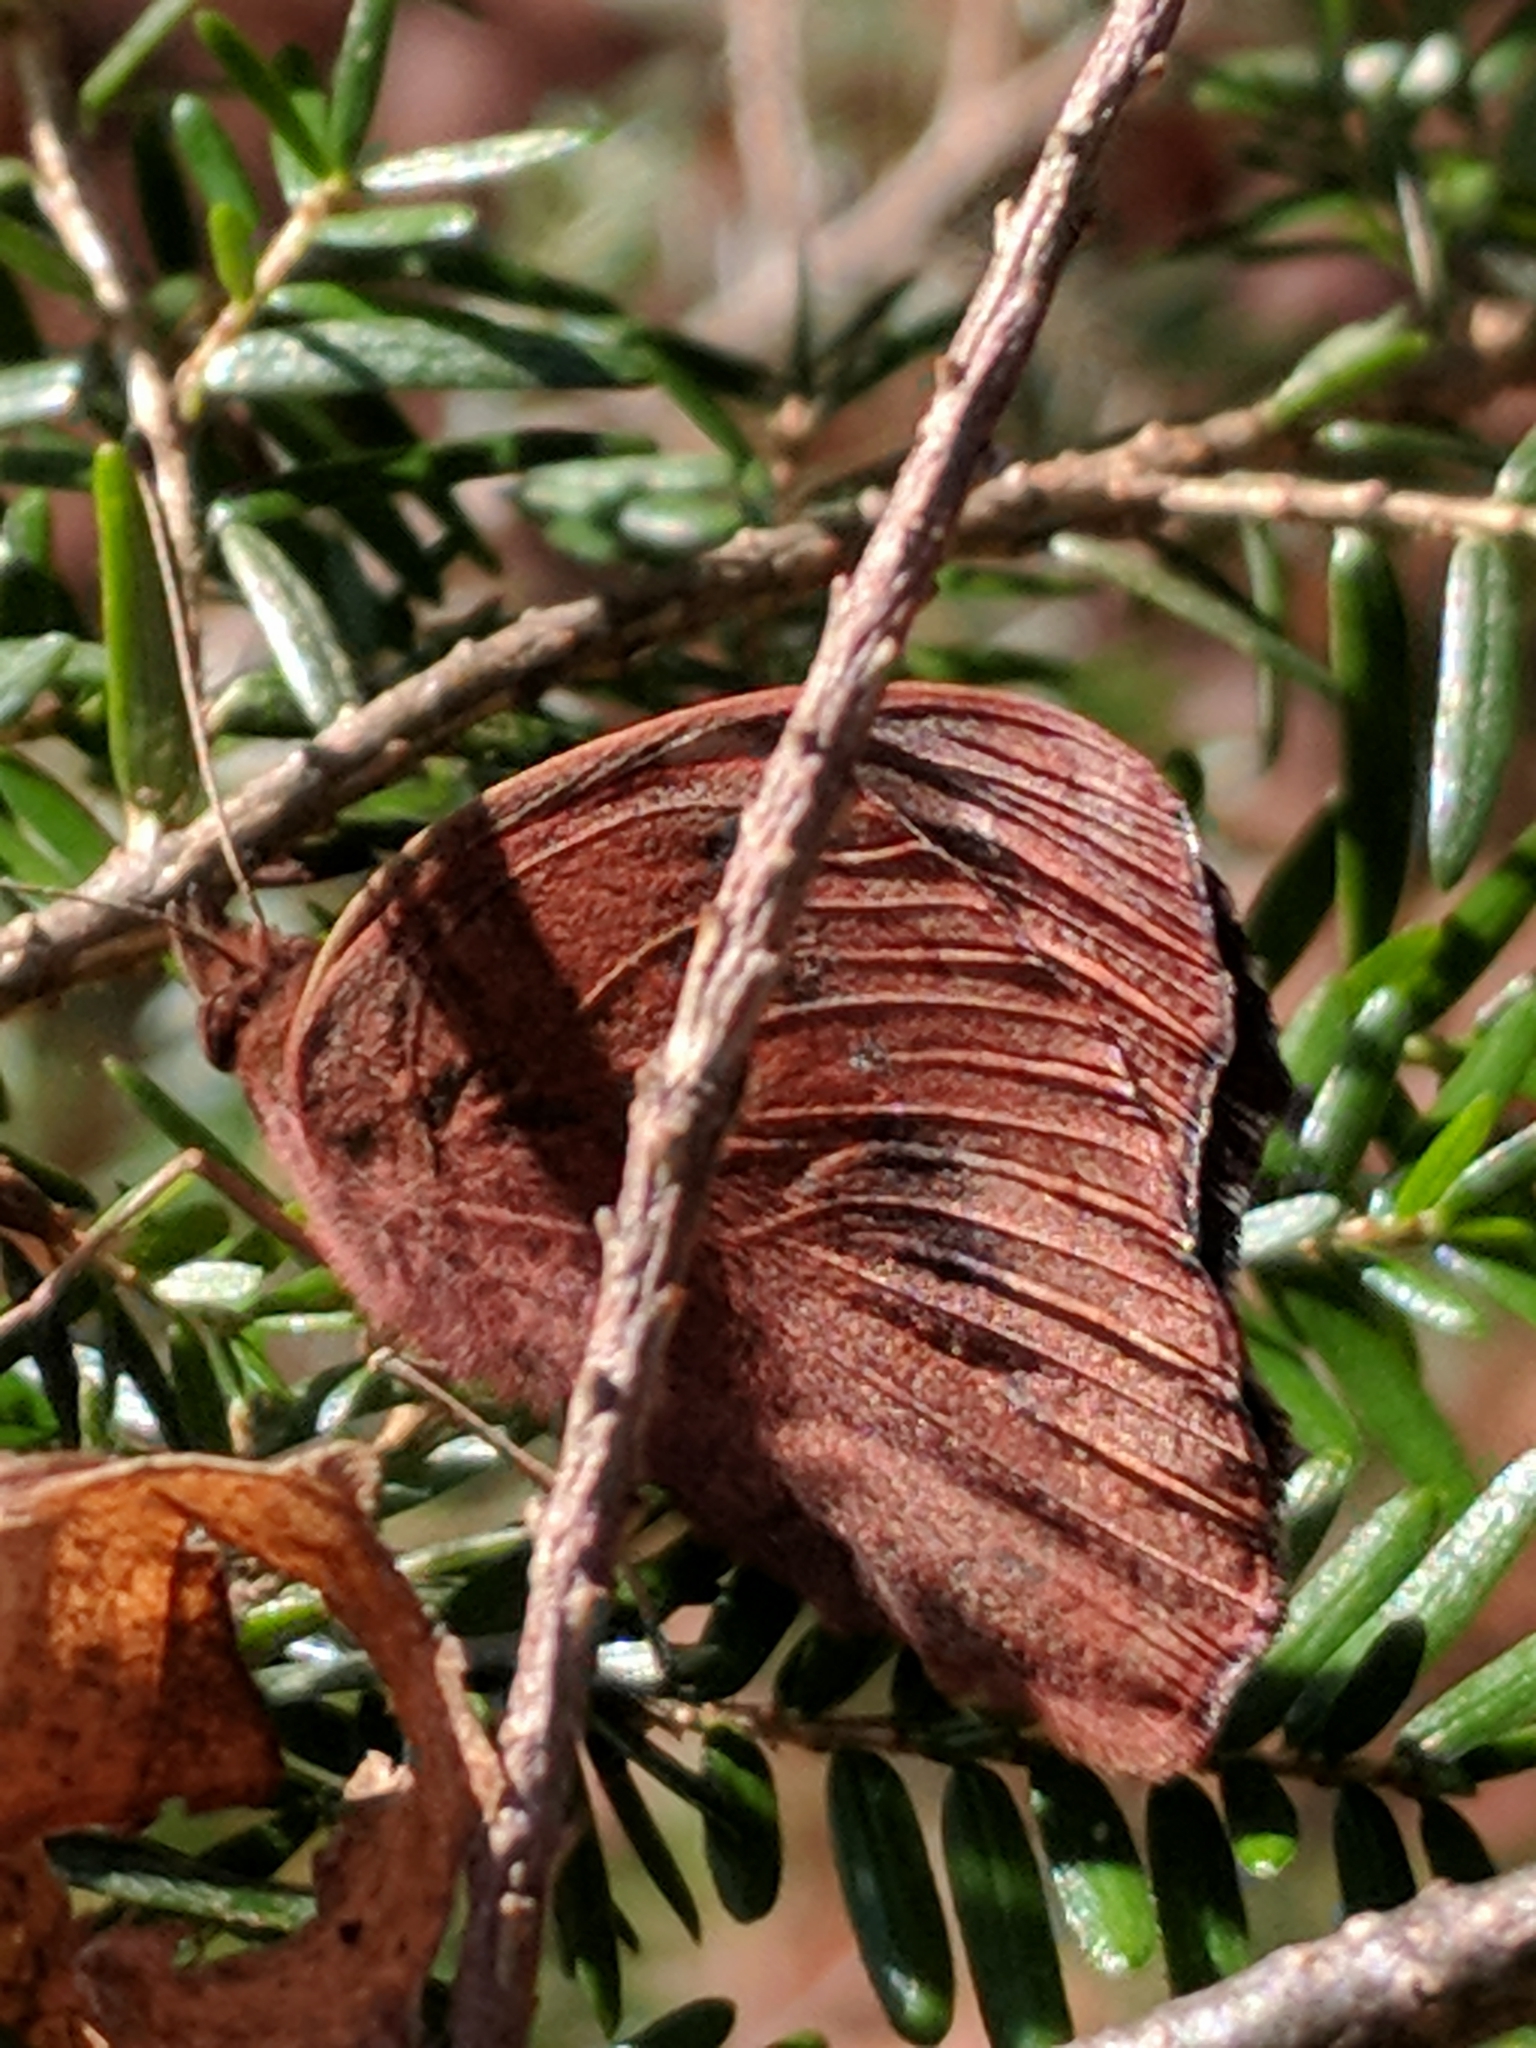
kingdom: Animalia
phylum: Arthropoda
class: Insecta
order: Lepidoptera
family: Nymphalidae
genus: Junonia
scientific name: Junonia coenia
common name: Common buckeye
